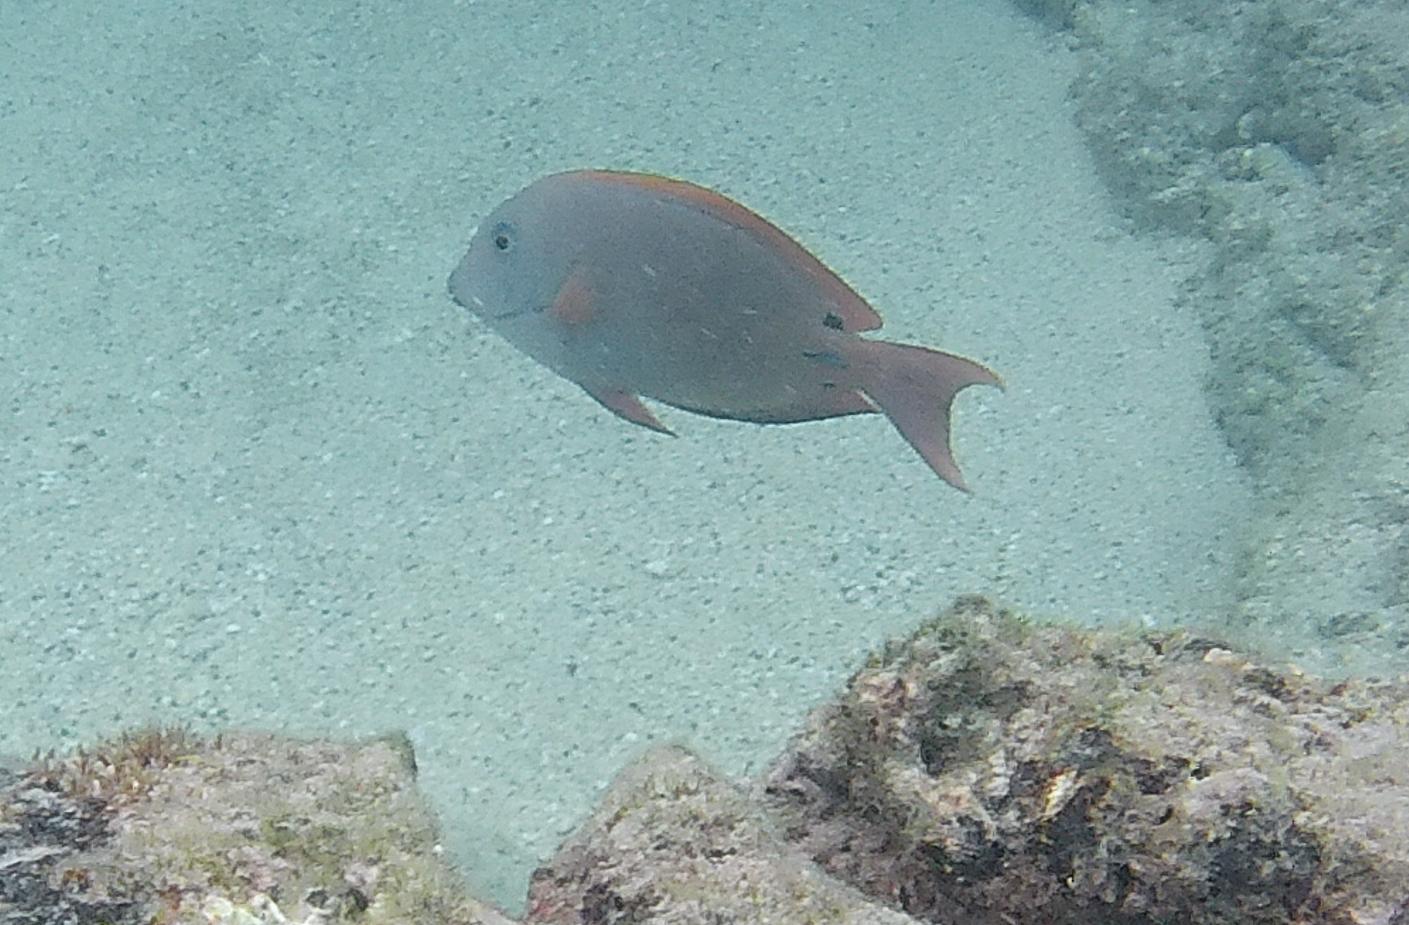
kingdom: Animalia
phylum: Chordata
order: Perciformes
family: Acanthuridae
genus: Acanthurus
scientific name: Acanthurus nigrofuscus
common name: Blackspot surgeonfish
